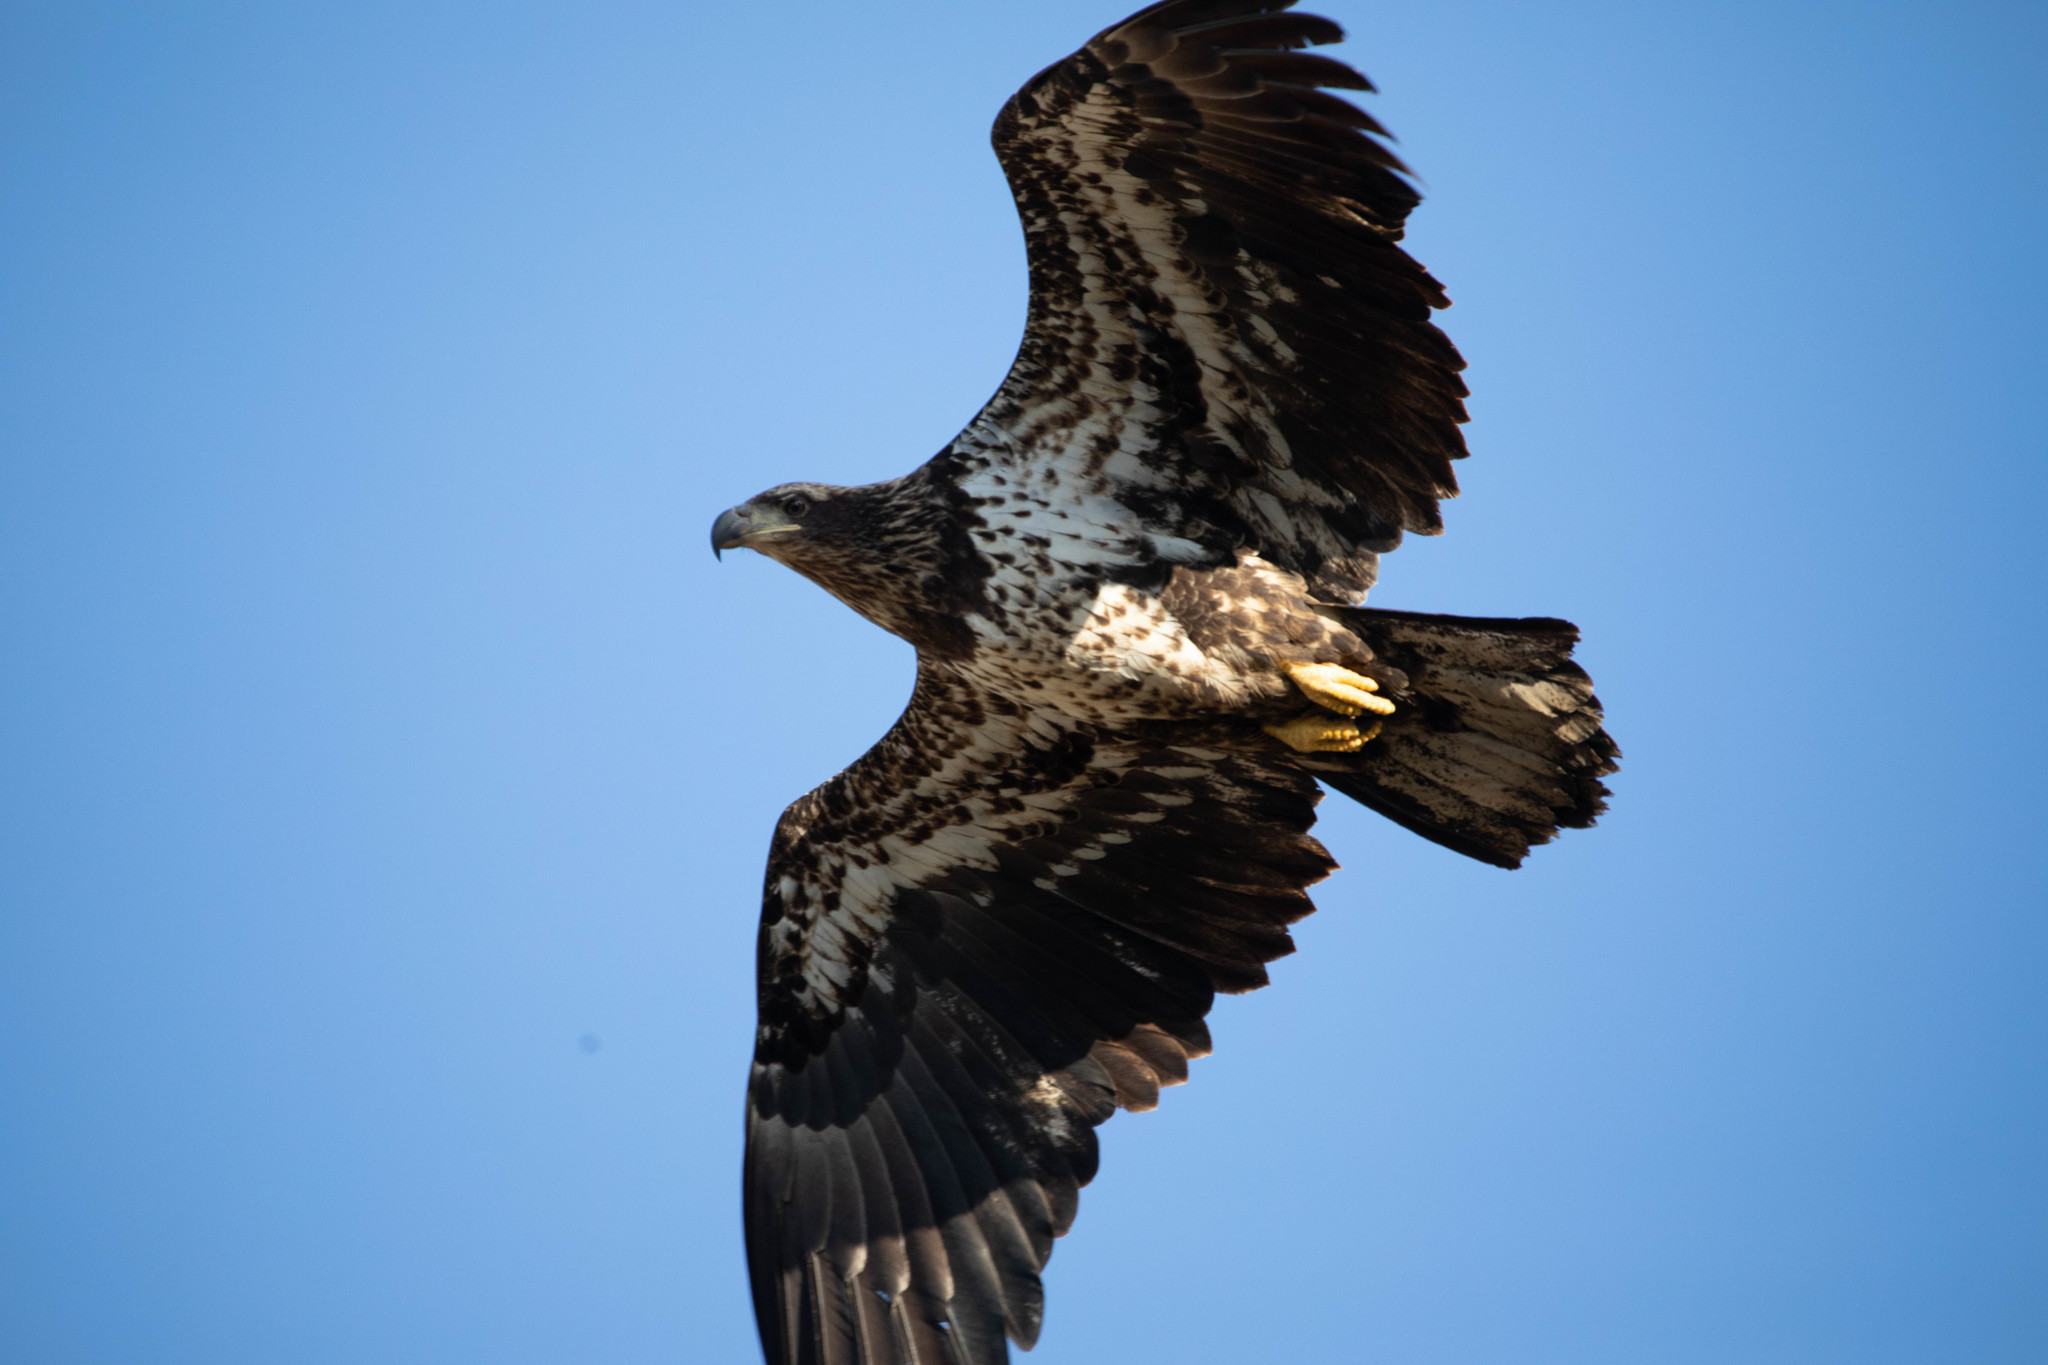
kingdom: Animalia
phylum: Chordata
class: Aves
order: Accipitriformes
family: Accipitridae
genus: Haliaeetus
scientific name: Haliaeetus leucocephalus
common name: Bald eagle
